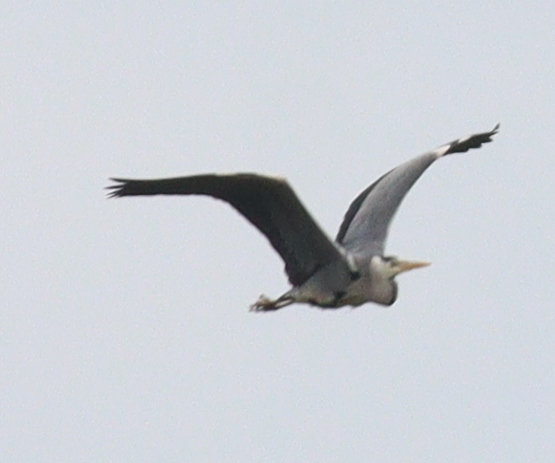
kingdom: Animalia
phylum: Chordata
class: Aves
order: Pelecaniformes
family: Ardeidae
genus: Ardea
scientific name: Ardea cinerea
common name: Grey heron
